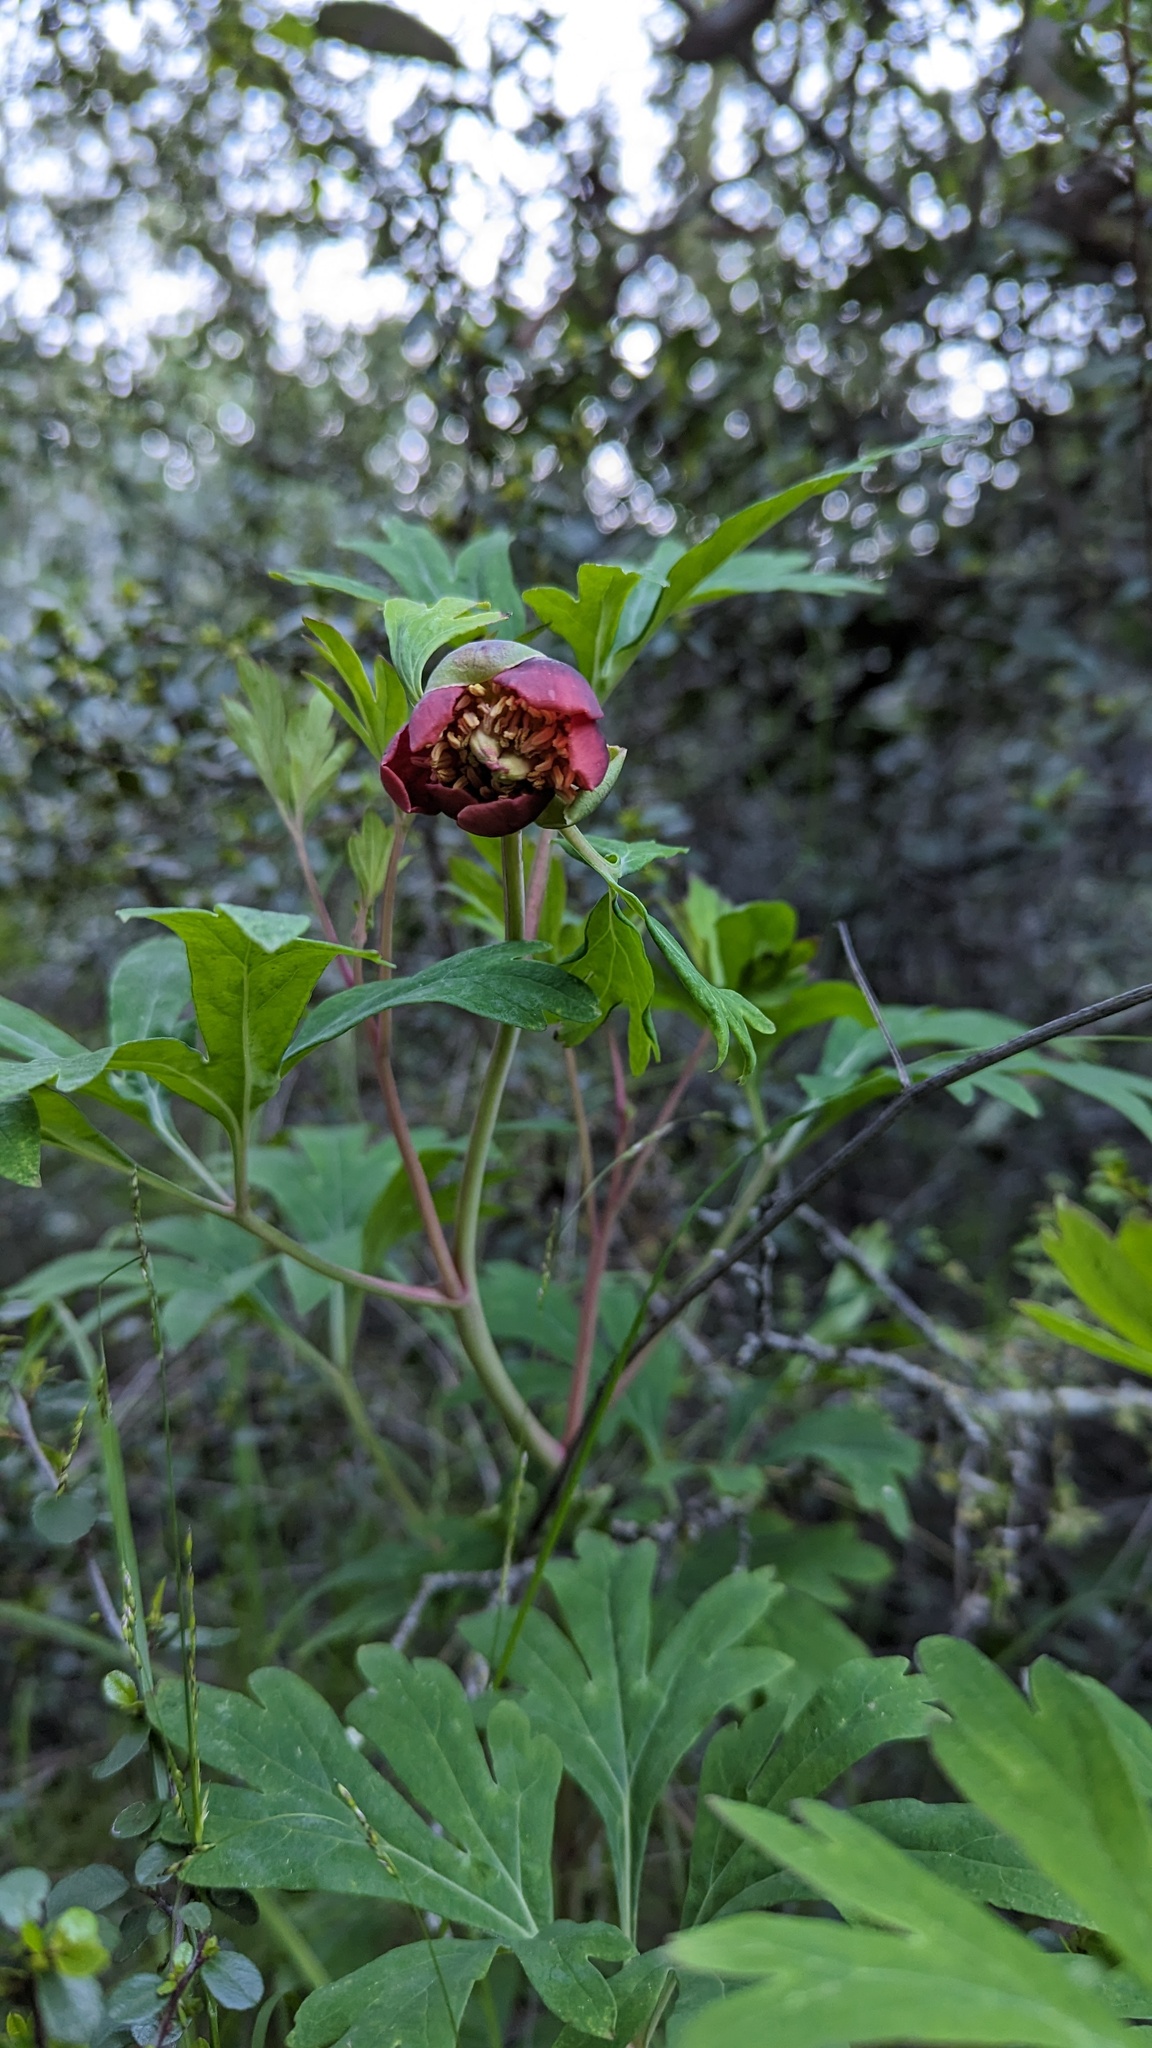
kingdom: Plantae
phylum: Tracheophyta
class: Magnoliopsida
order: Saxifragales
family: Paeoniaceae
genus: Paeonia
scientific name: Paeonia californica
